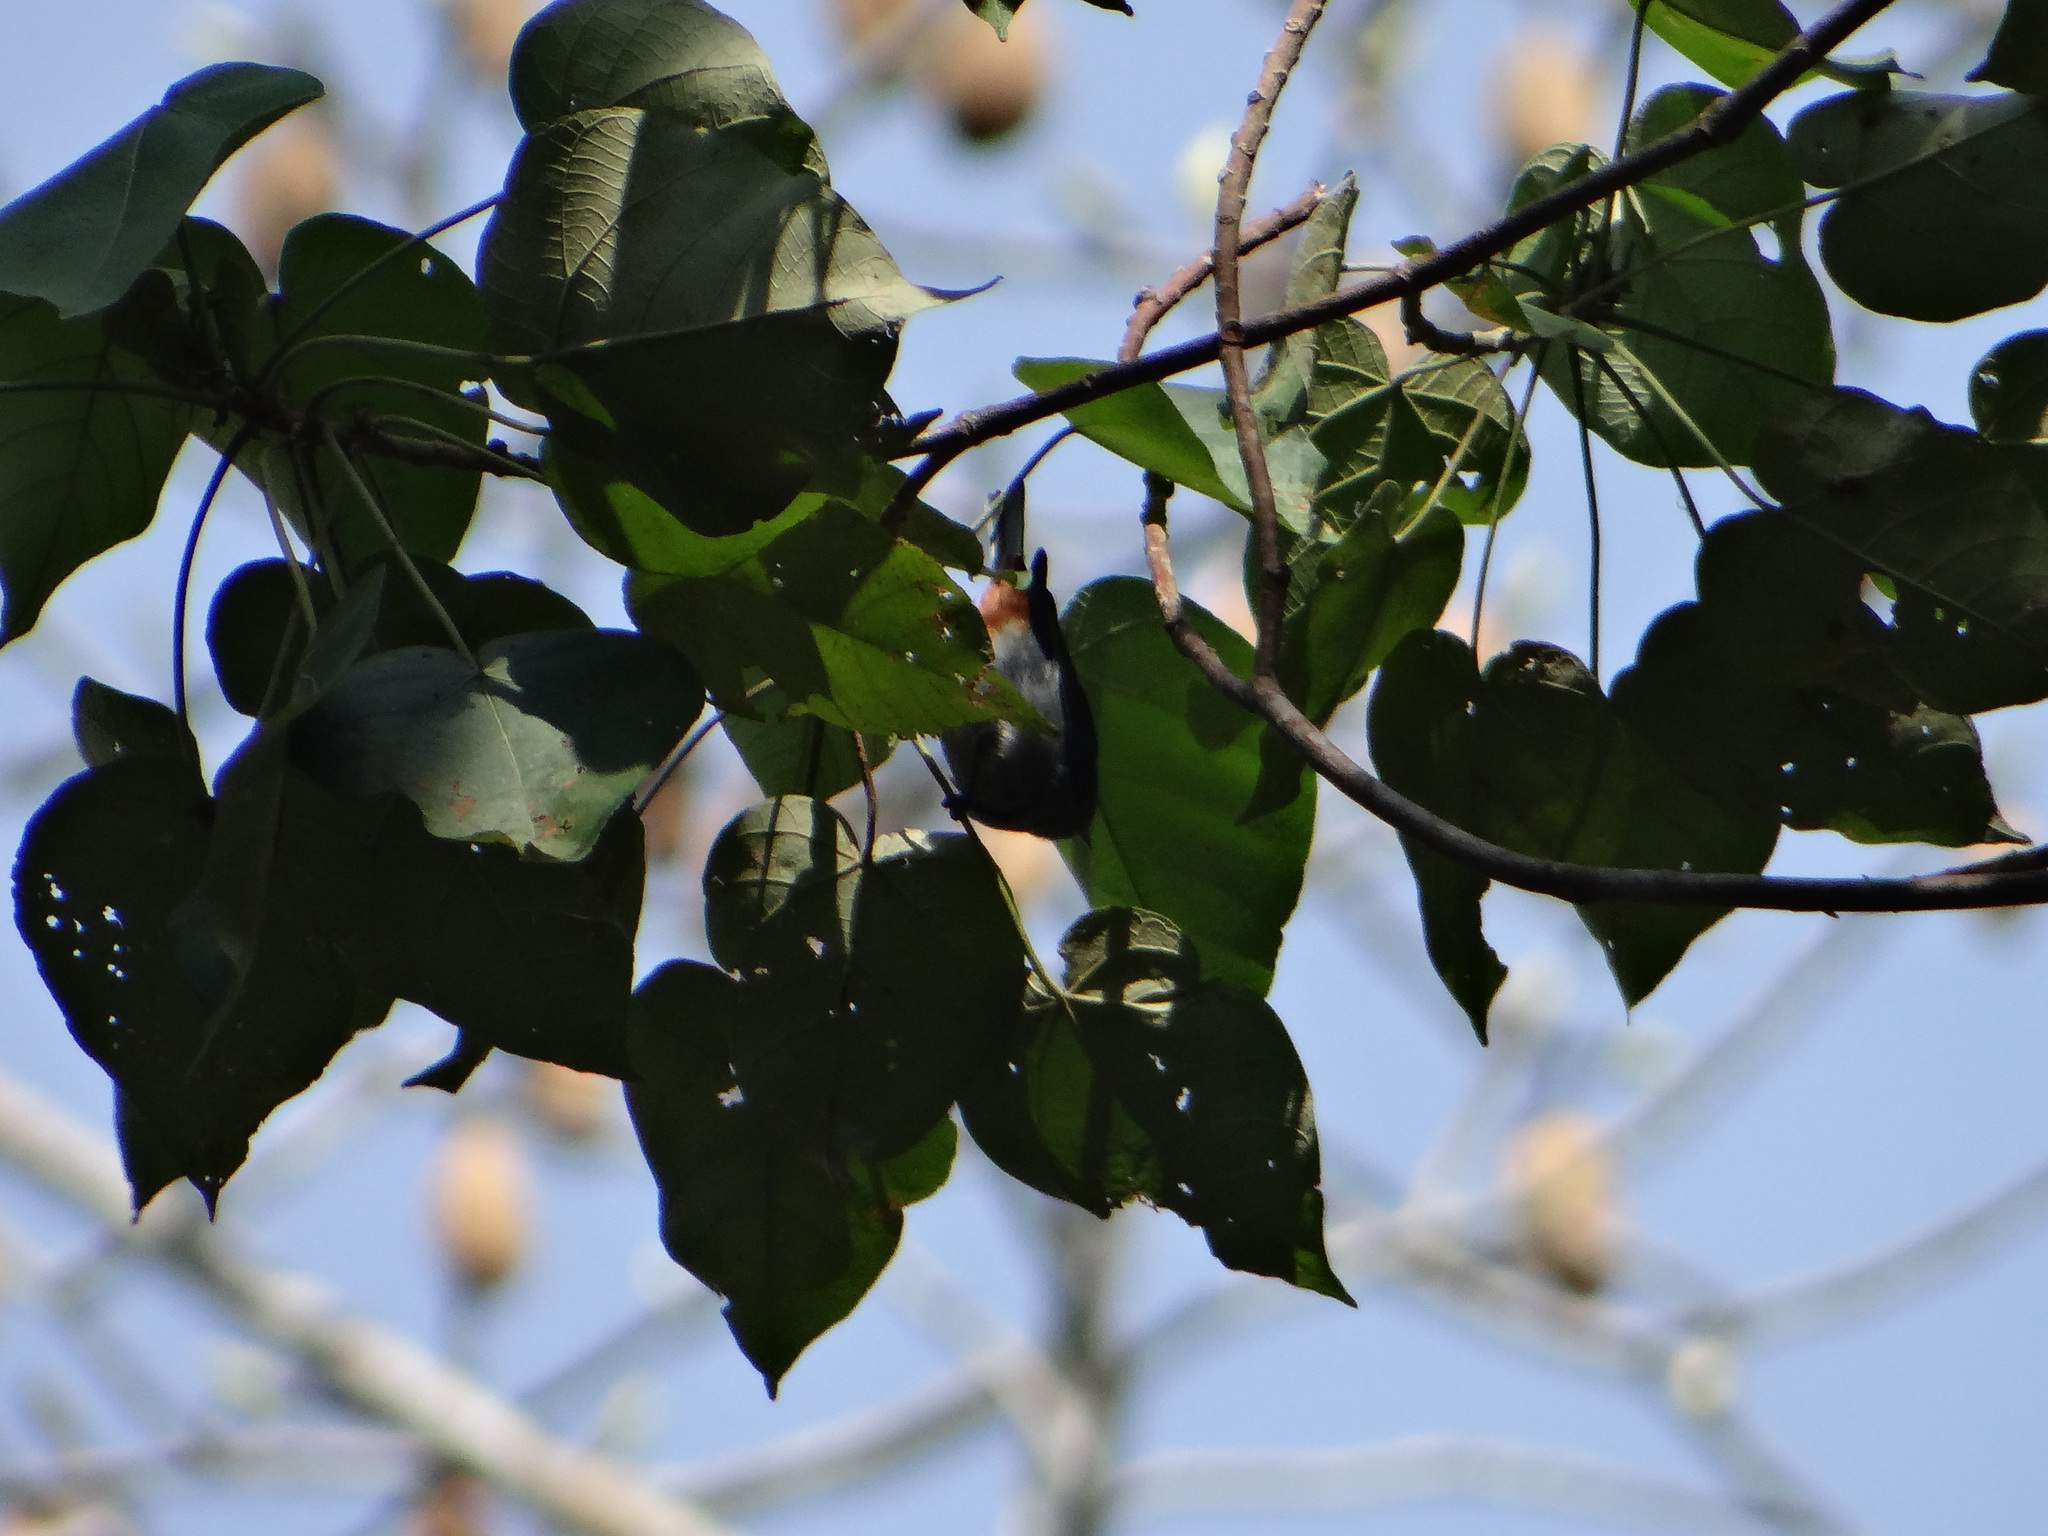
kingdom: Animalia
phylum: Chordata
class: Aves
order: Passeriformes
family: Thraupidae
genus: Conirostrum
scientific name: Conirostrum speciosum
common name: Chestnut-vented conebill
